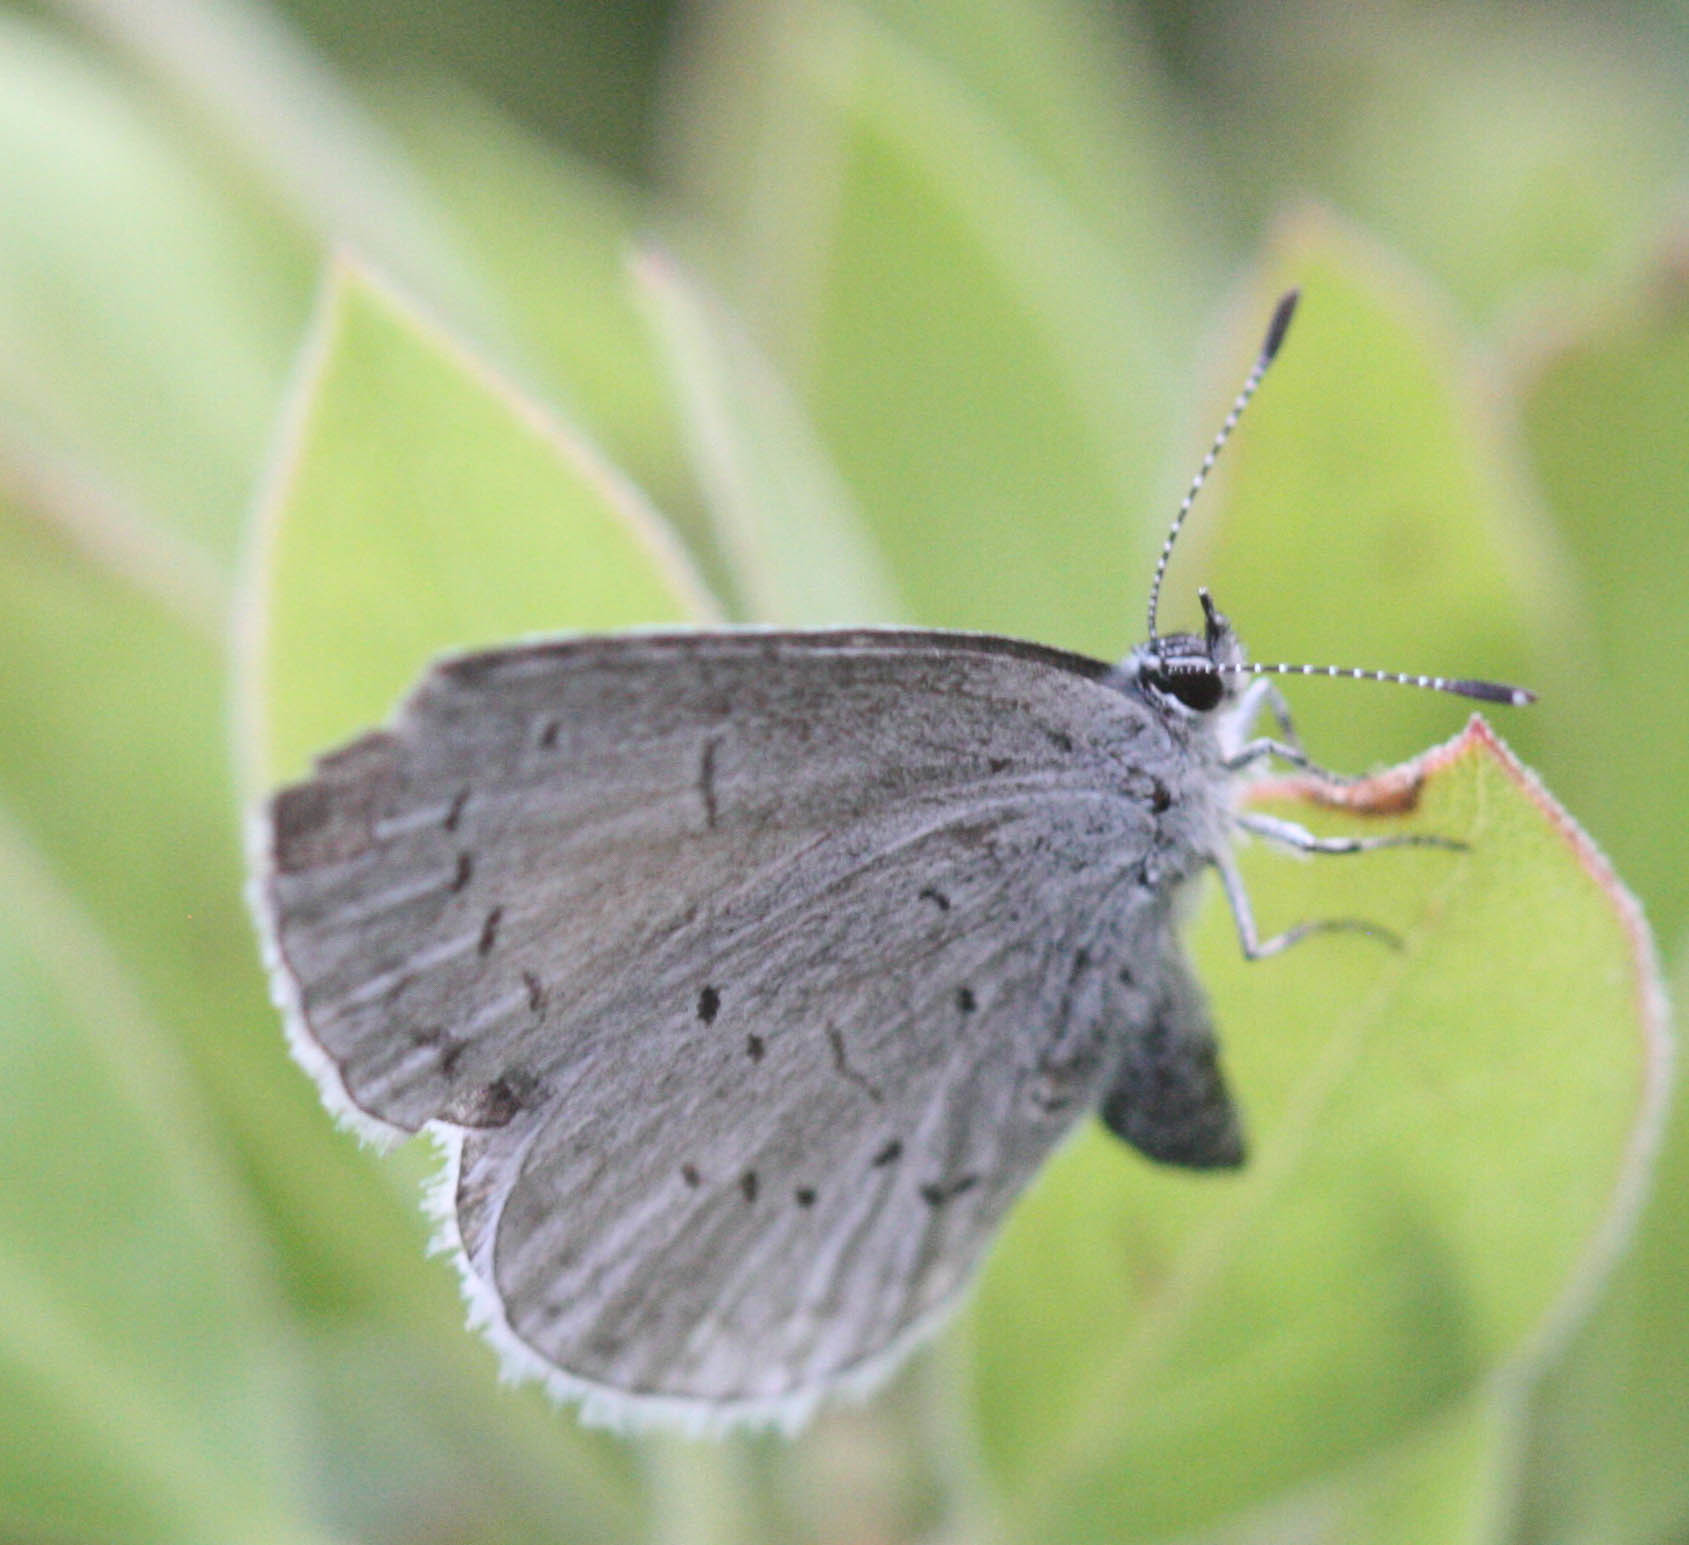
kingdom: Animalia
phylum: Arthropoda
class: Insecta
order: Lepidoptera
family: Lycaenidae
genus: Celastrina
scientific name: Celastrina ladon
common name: Spring azure
